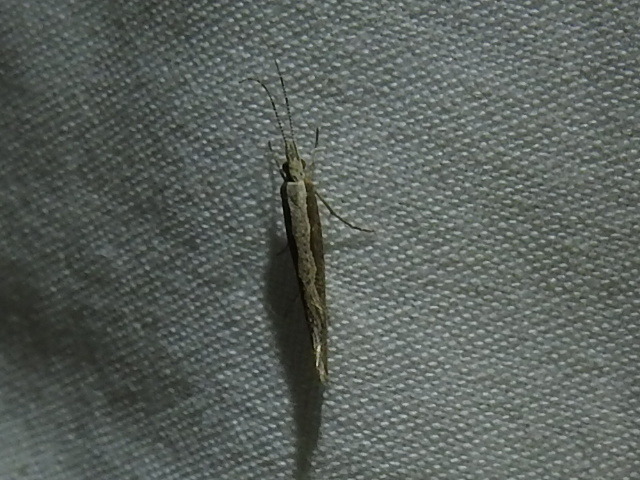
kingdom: Animalia
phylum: Arthropoda
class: Insecta
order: Lepidoptera
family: Plutellidae
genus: Plutella
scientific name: Plutella xylostella
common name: Diamond-back moth
